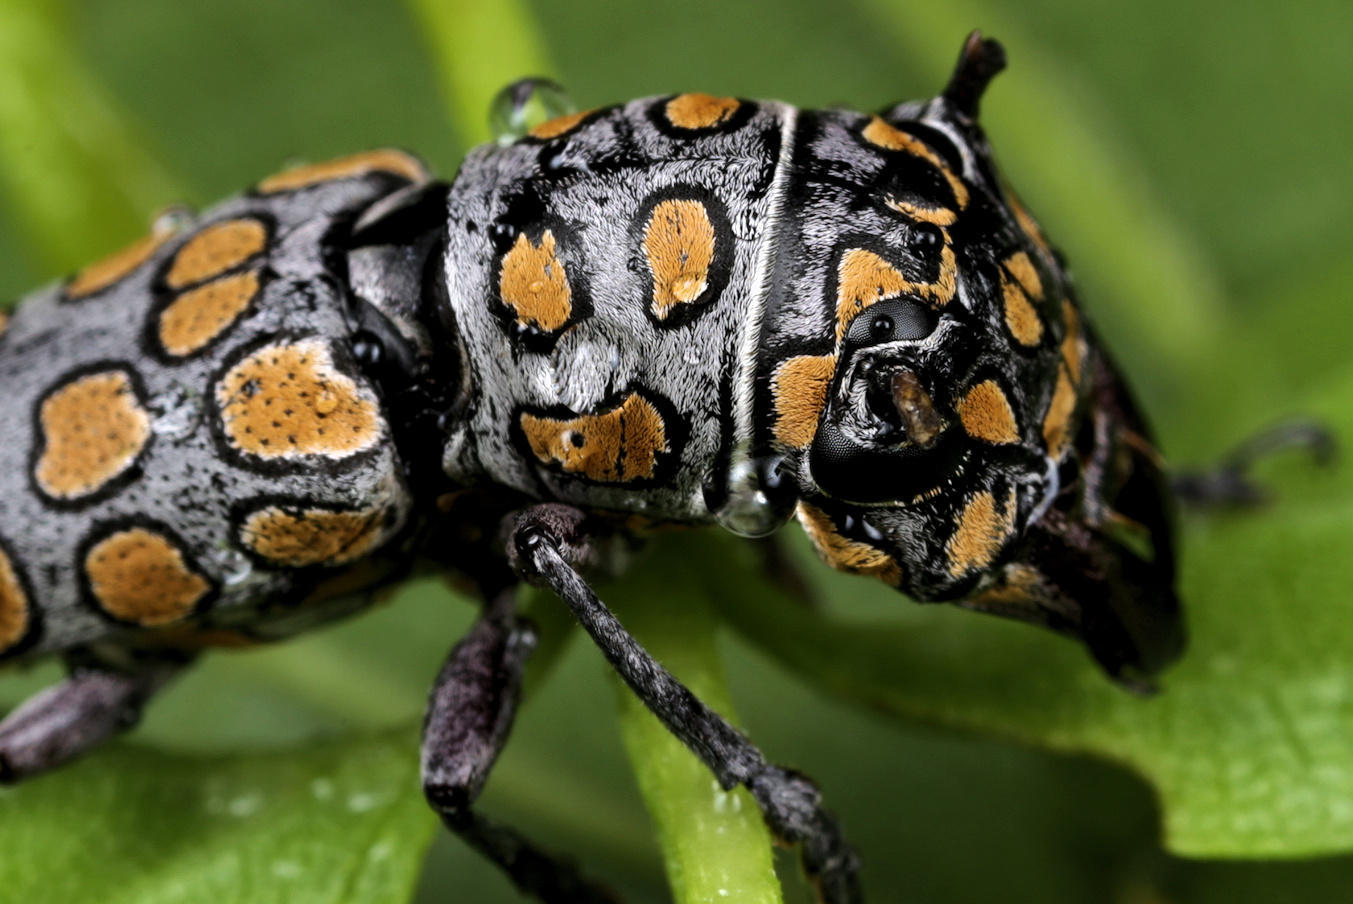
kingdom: Animalia
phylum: Arthropoda
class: Insecta
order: Coleoptera
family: Cerambycidae
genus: Dinocephalus
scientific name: Dinocephalus ornatus
